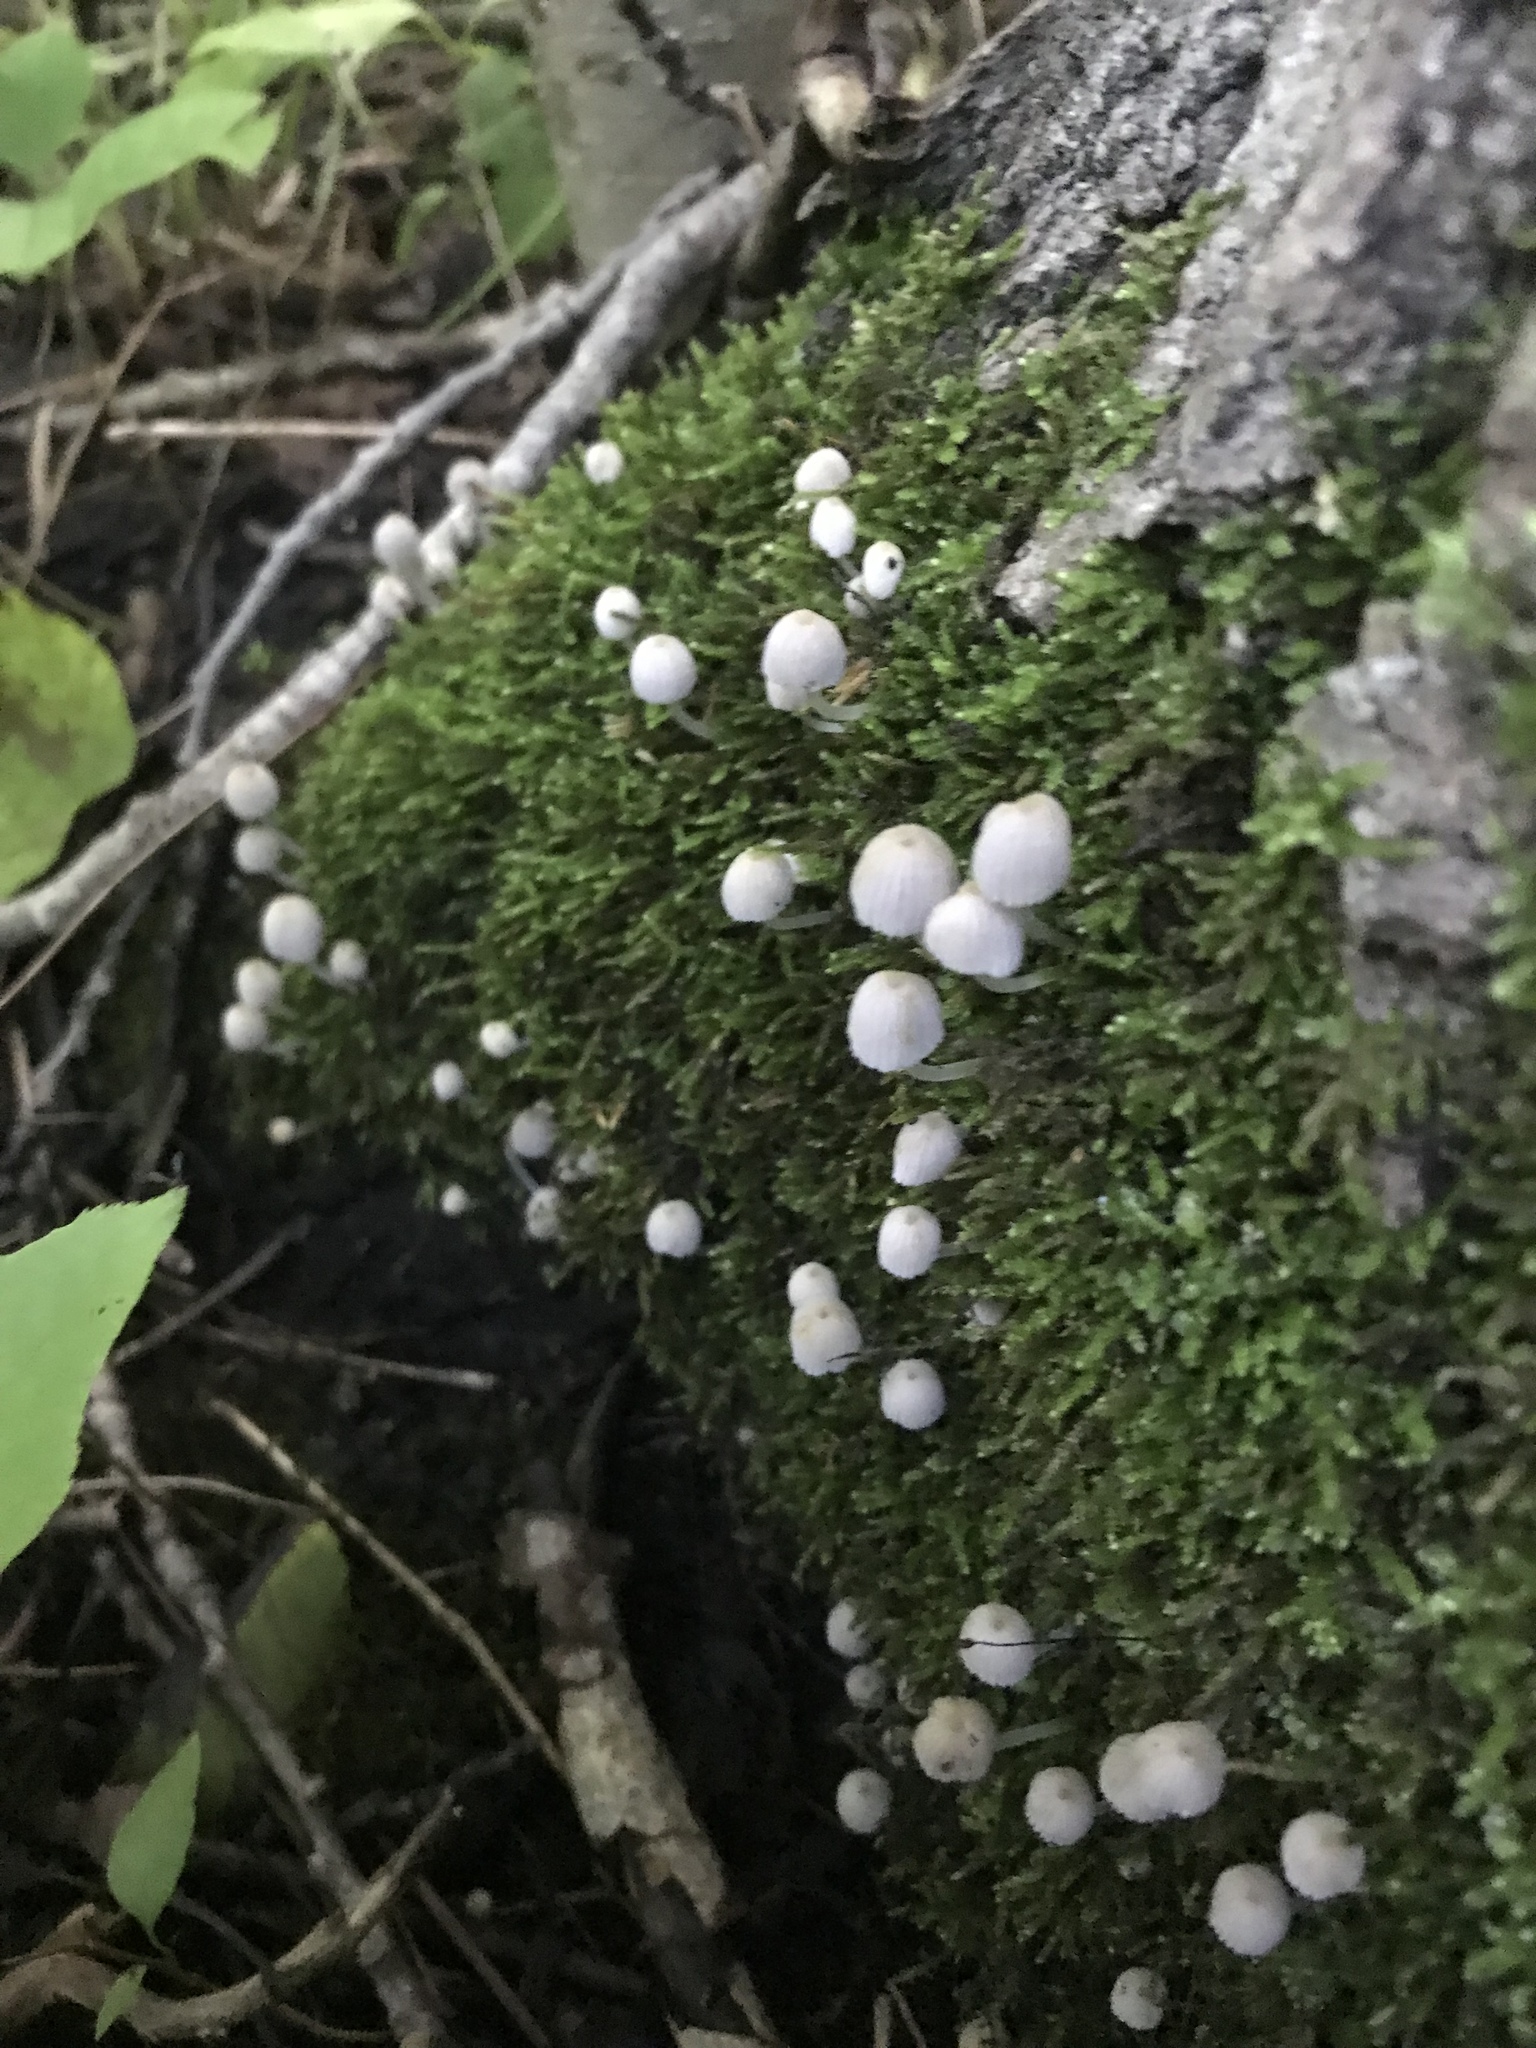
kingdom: Fungi
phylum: Basidiomycota
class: Agaricomycetes
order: Agaricales
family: Psathyrellaceae
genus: Coprinellus
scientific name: Coprinellus disseminatus
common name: Fairies' bonnets
